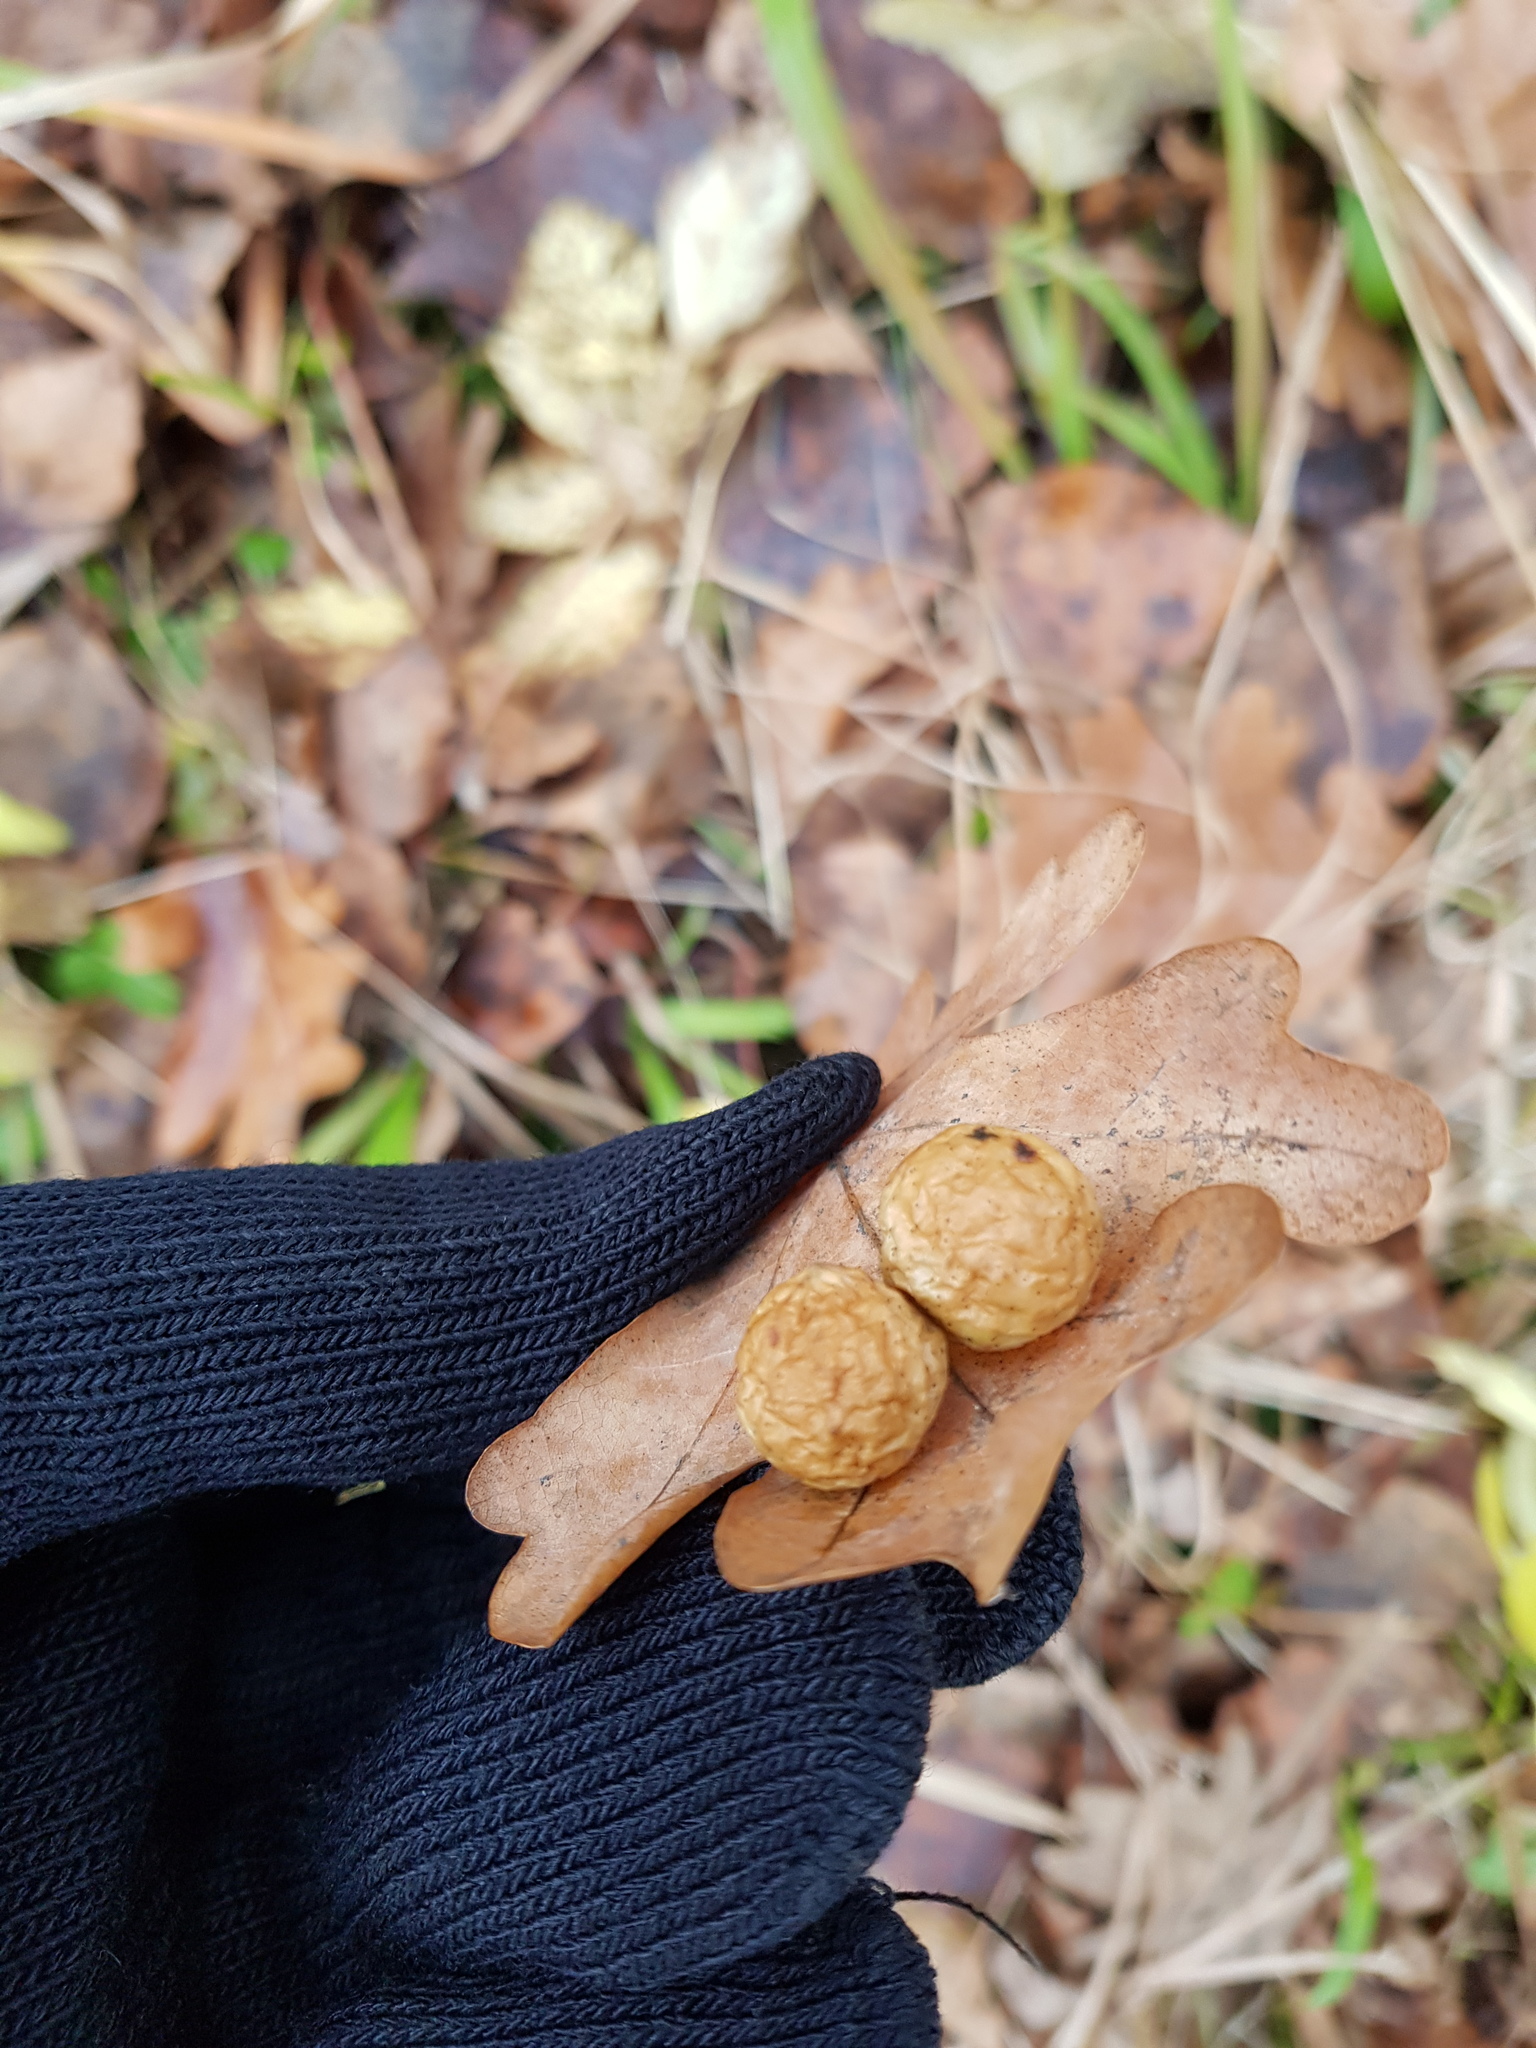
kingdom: Animalia
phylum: Arthropoda
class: Insecta
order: Hymenoptera
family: Cynipidae
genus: Cynips
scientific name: Cynips quercusfolii
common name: Cherry gall
